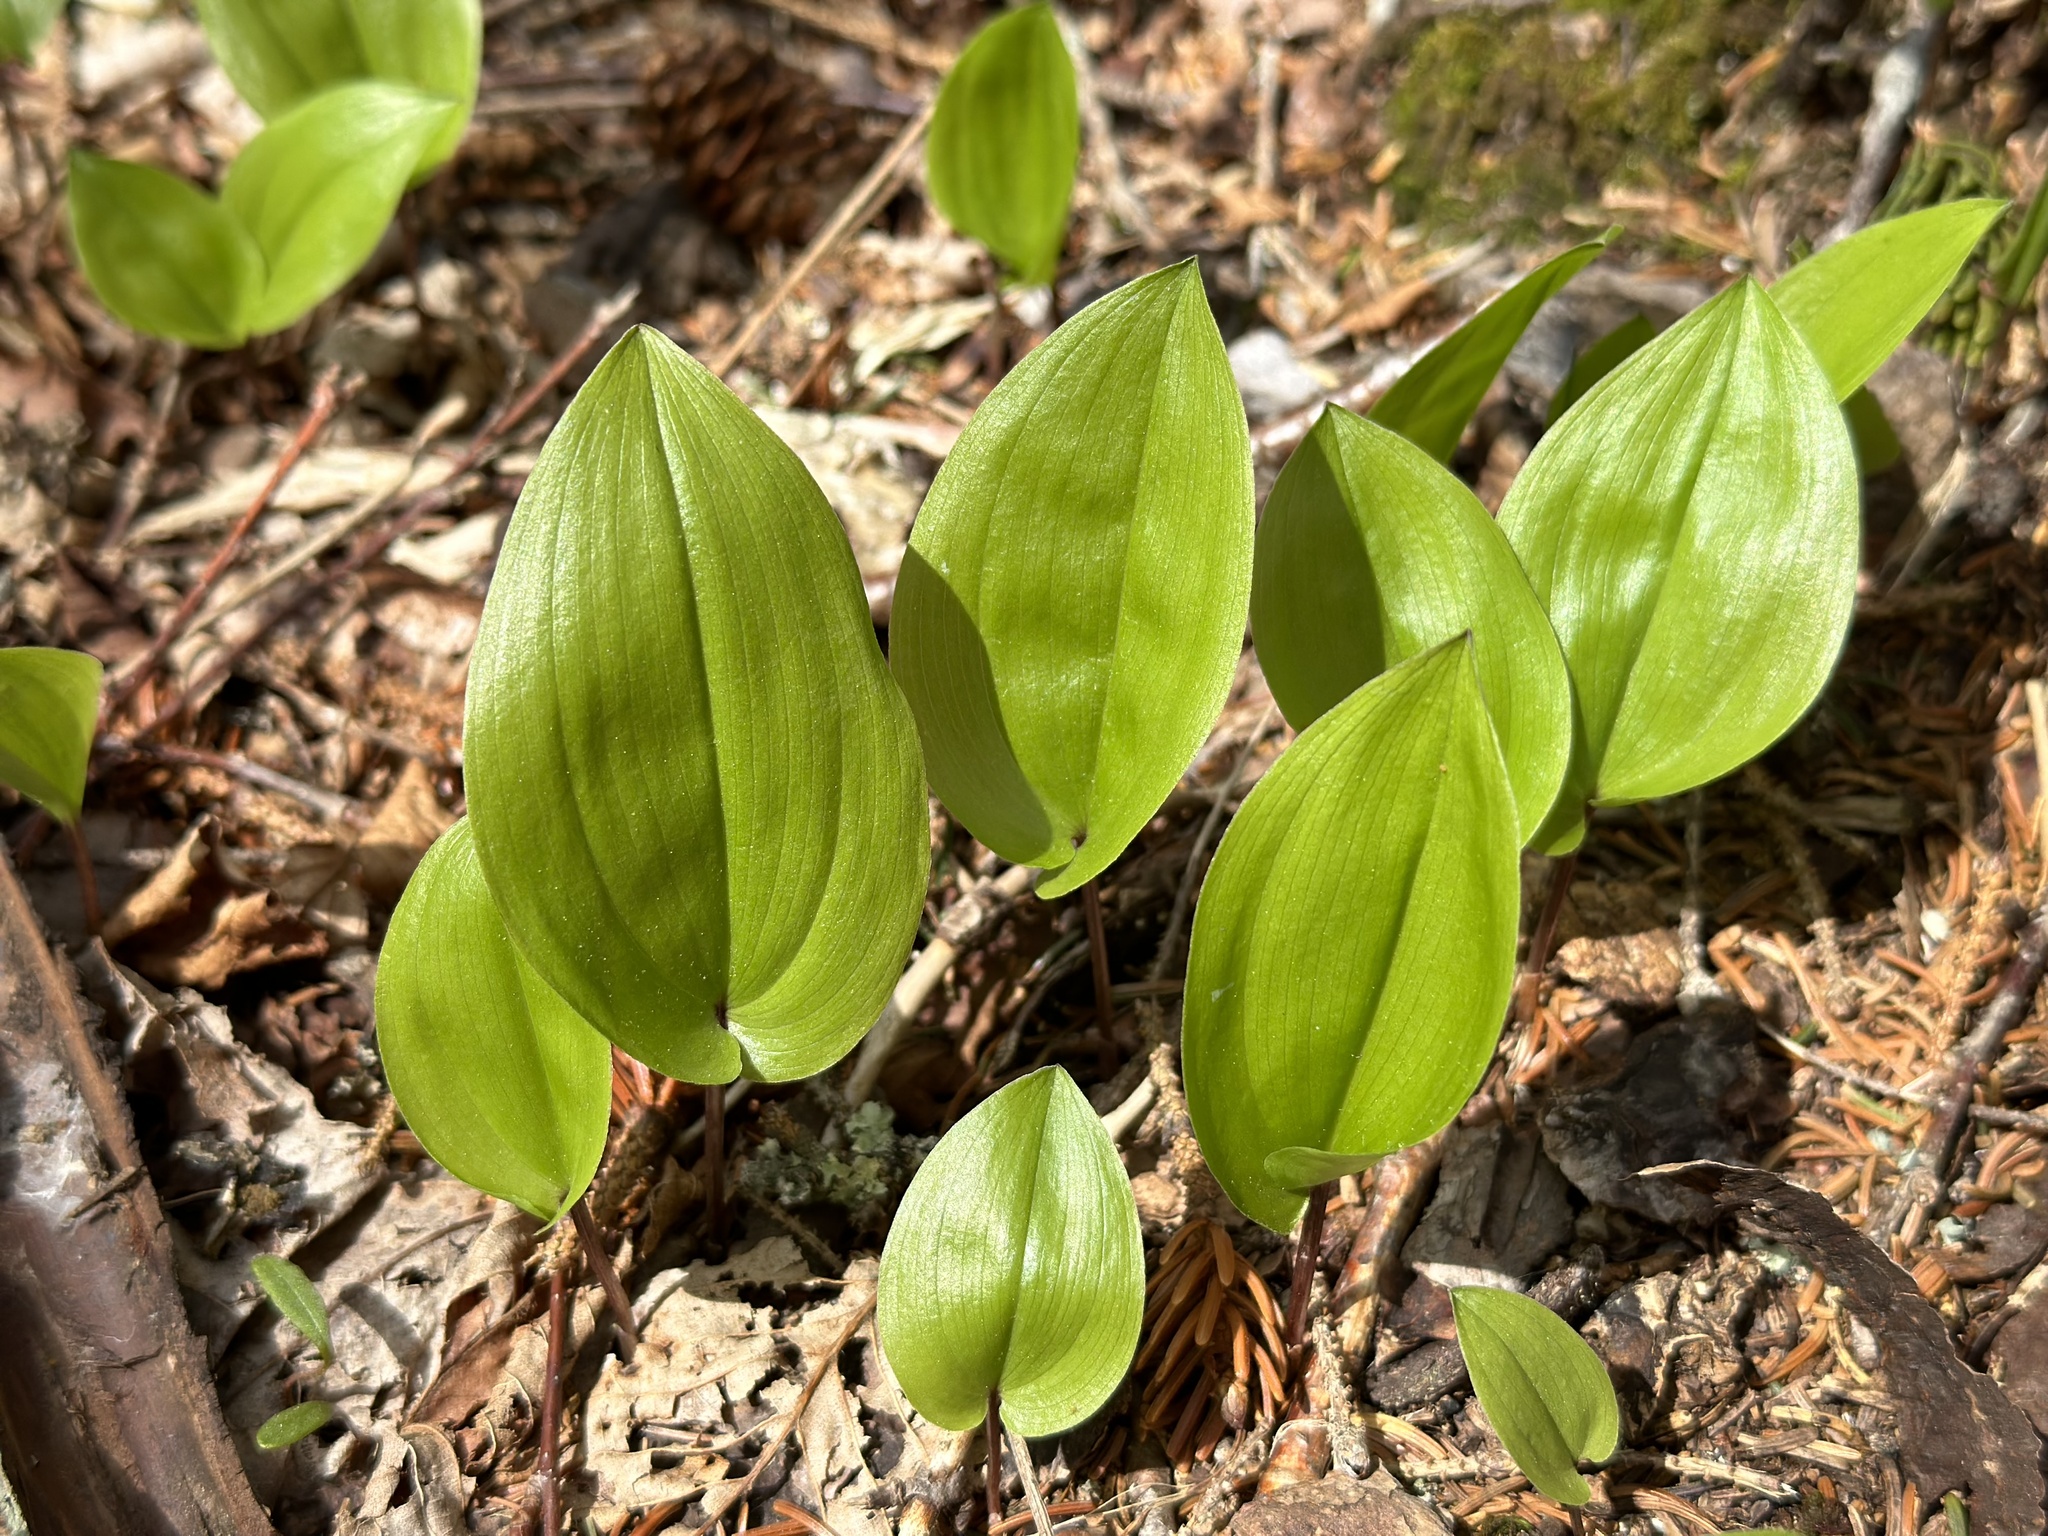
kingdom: Plantae
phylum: Tracheophyta
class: Liliopsida
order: Asparagales
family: Asparagaceae
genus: Maianthemum
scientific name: Maianthemum canadense
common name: False lily-of-the-valley
